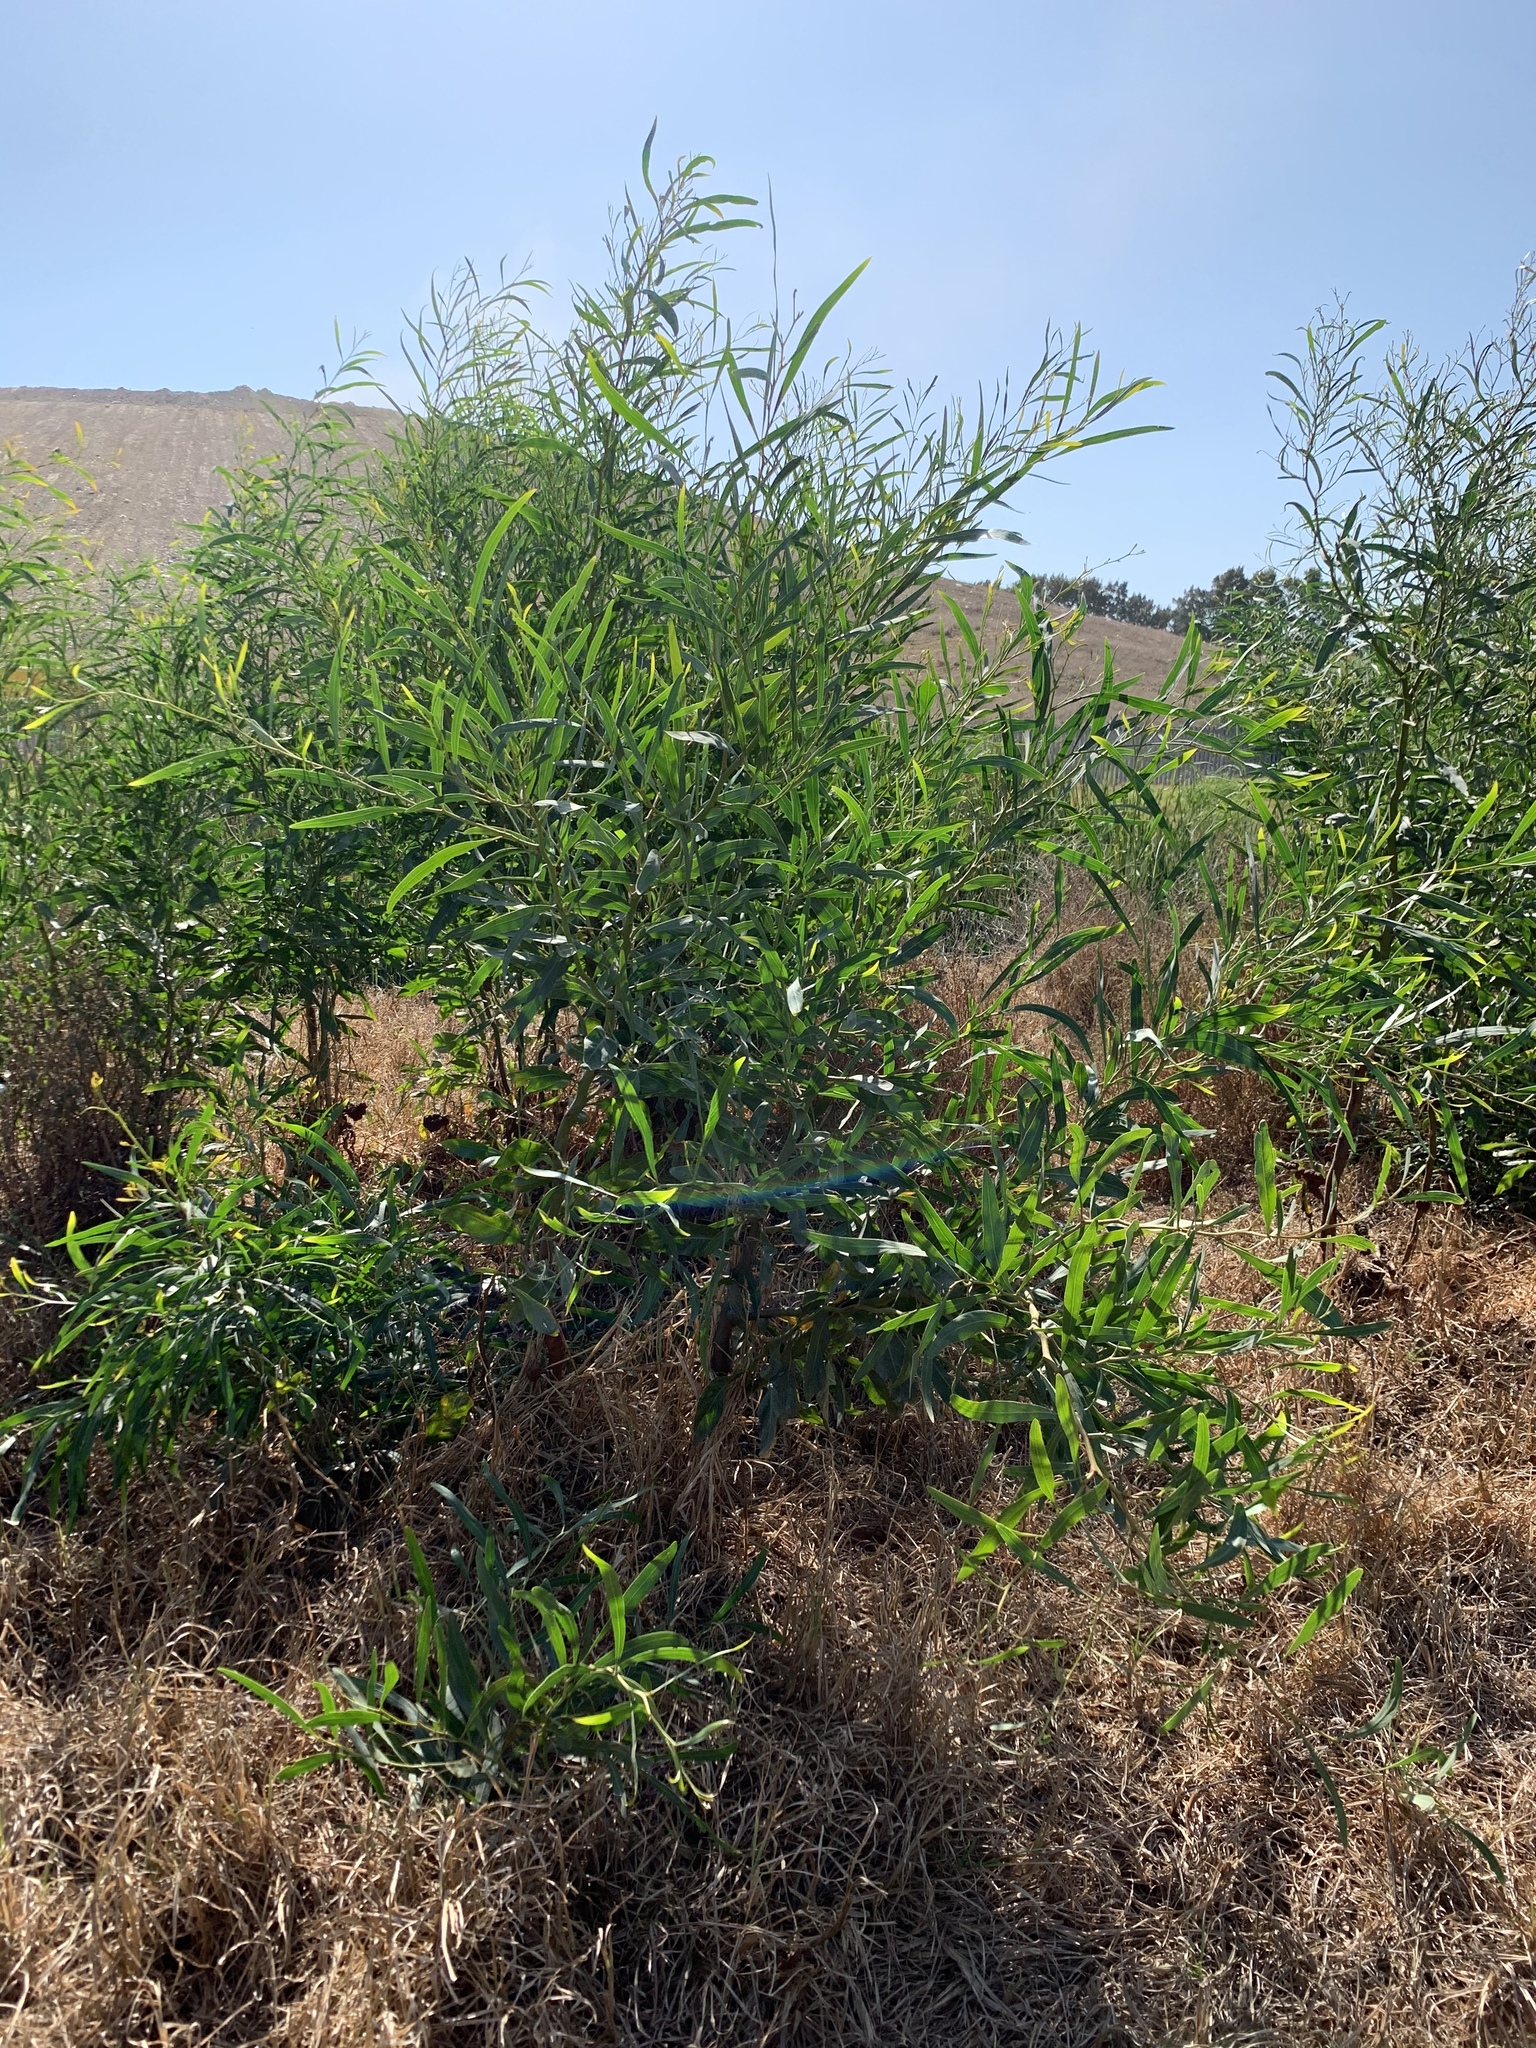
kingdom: Plantae
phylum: Tracheophyta
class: Magnoliopsida
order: Fabales
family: Fabaceae
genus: Acacia
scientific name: Acacia saligna
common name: Orange wattle
